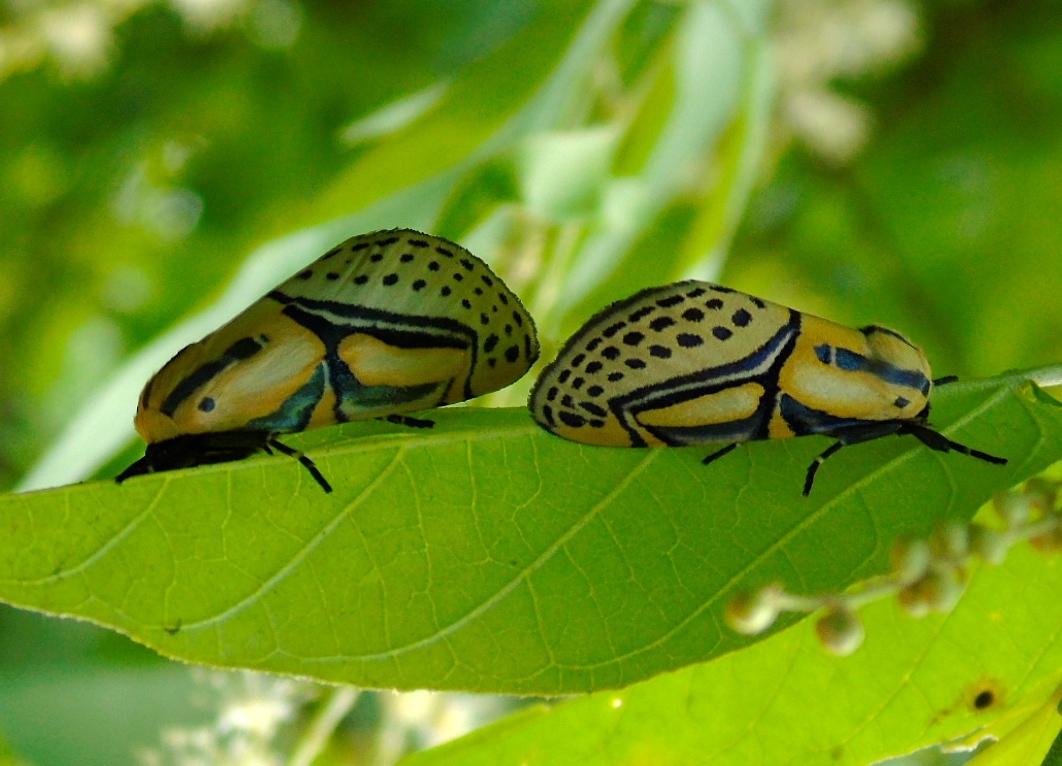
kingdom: Animalia
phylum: Arthropoda
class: Insecta
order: Lepidoptera
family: Erebidae
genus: Diphthera
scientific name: Diphthera festiva
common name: Hieroglyphic moth
